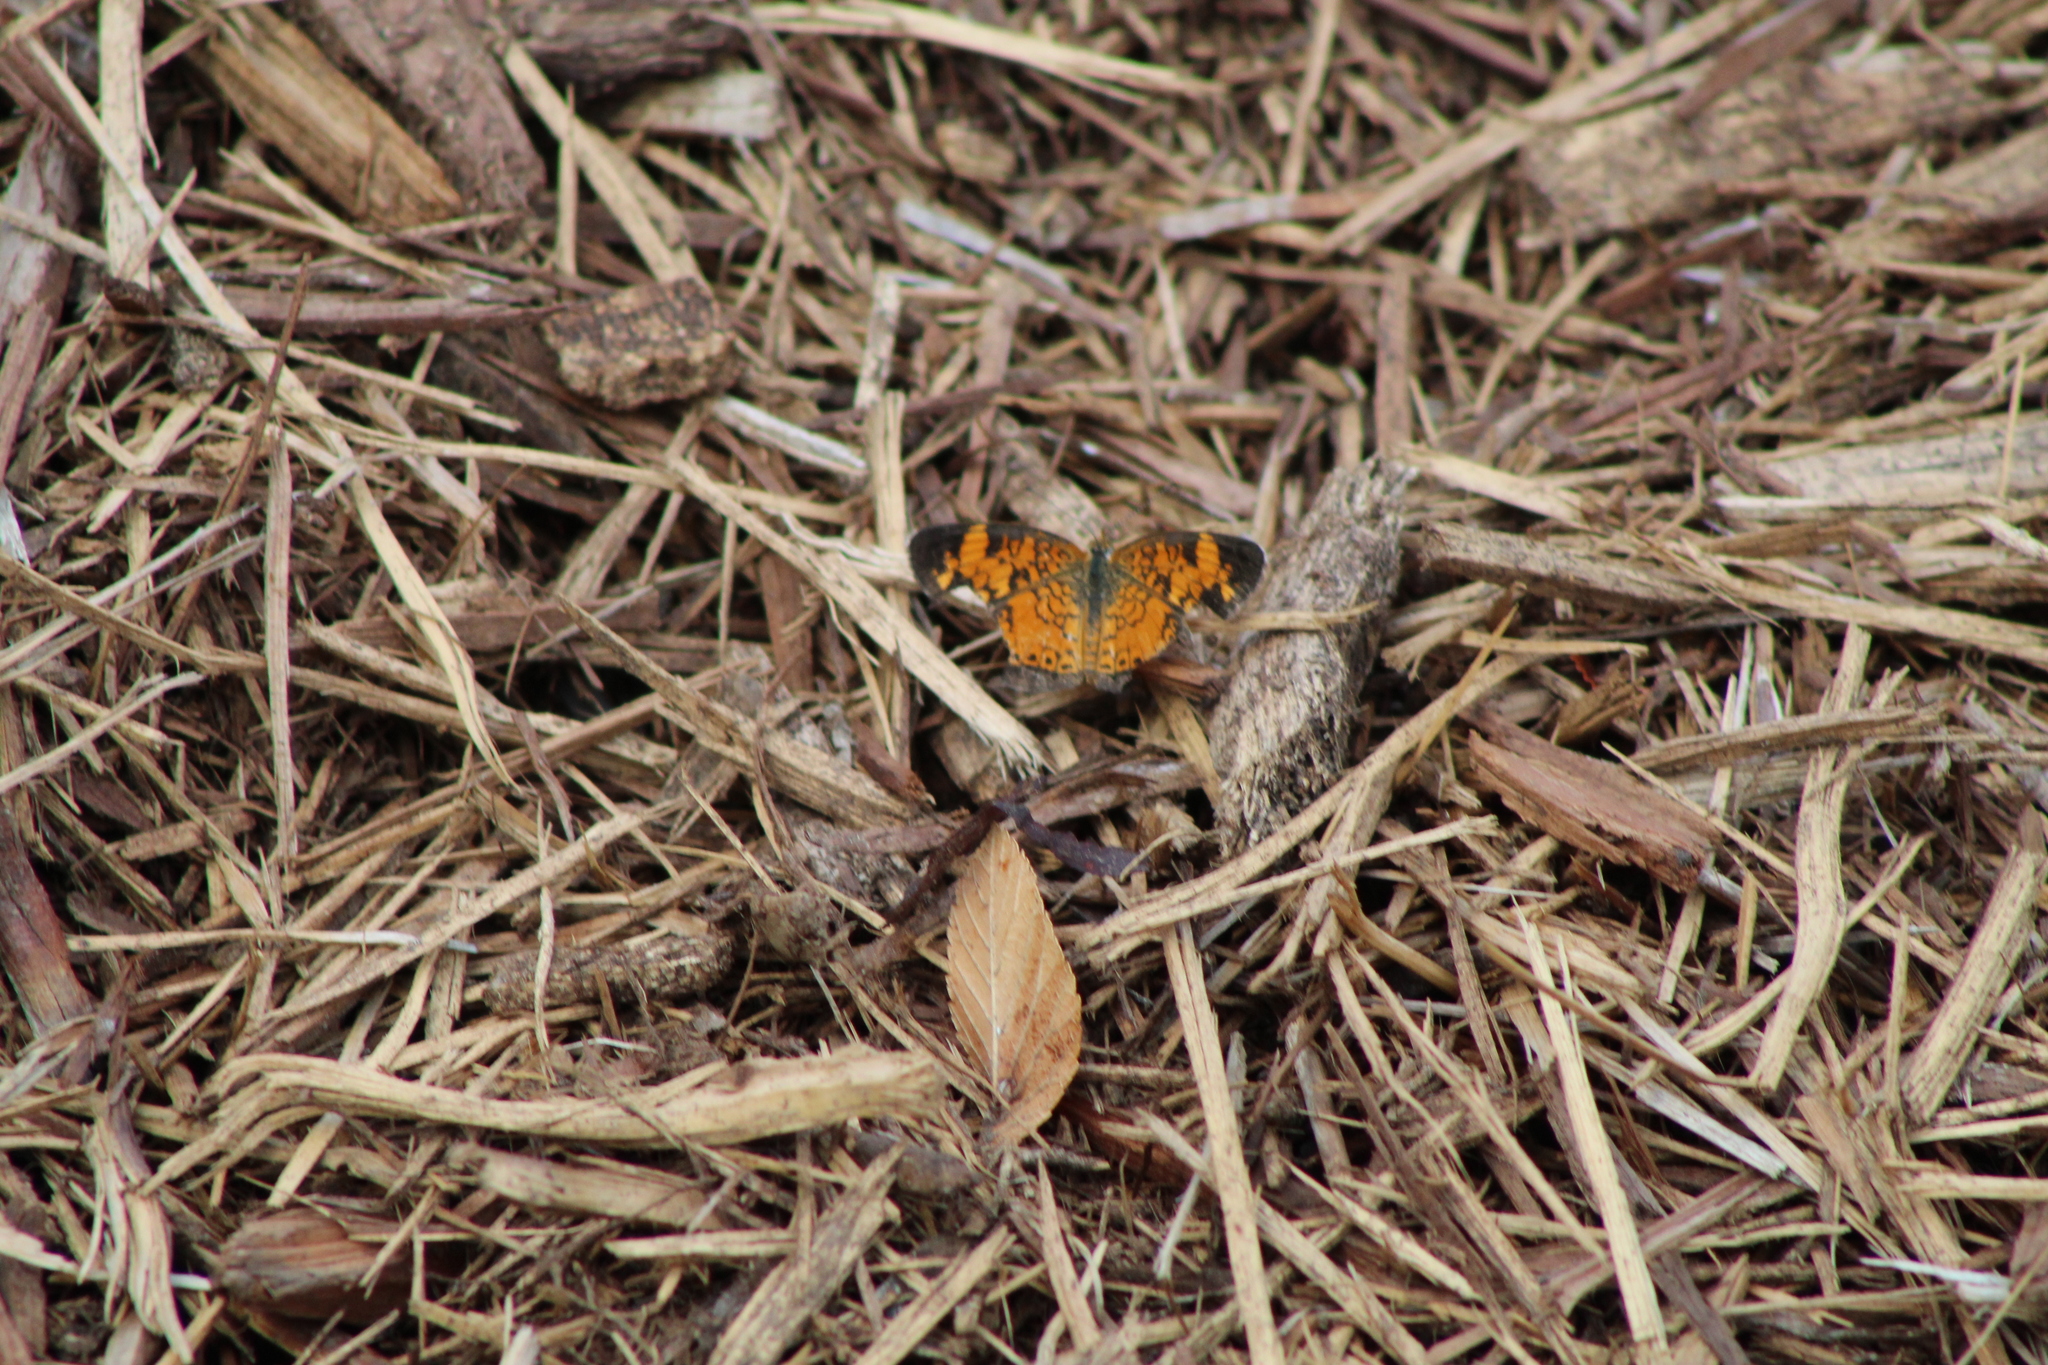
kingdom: Animalia
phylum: Arthropoda
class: Insecta
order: Lepidoptera
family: Nymphalidae
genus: Phyciodes
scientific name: Phyciodes tharos
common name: Pearl crescent
